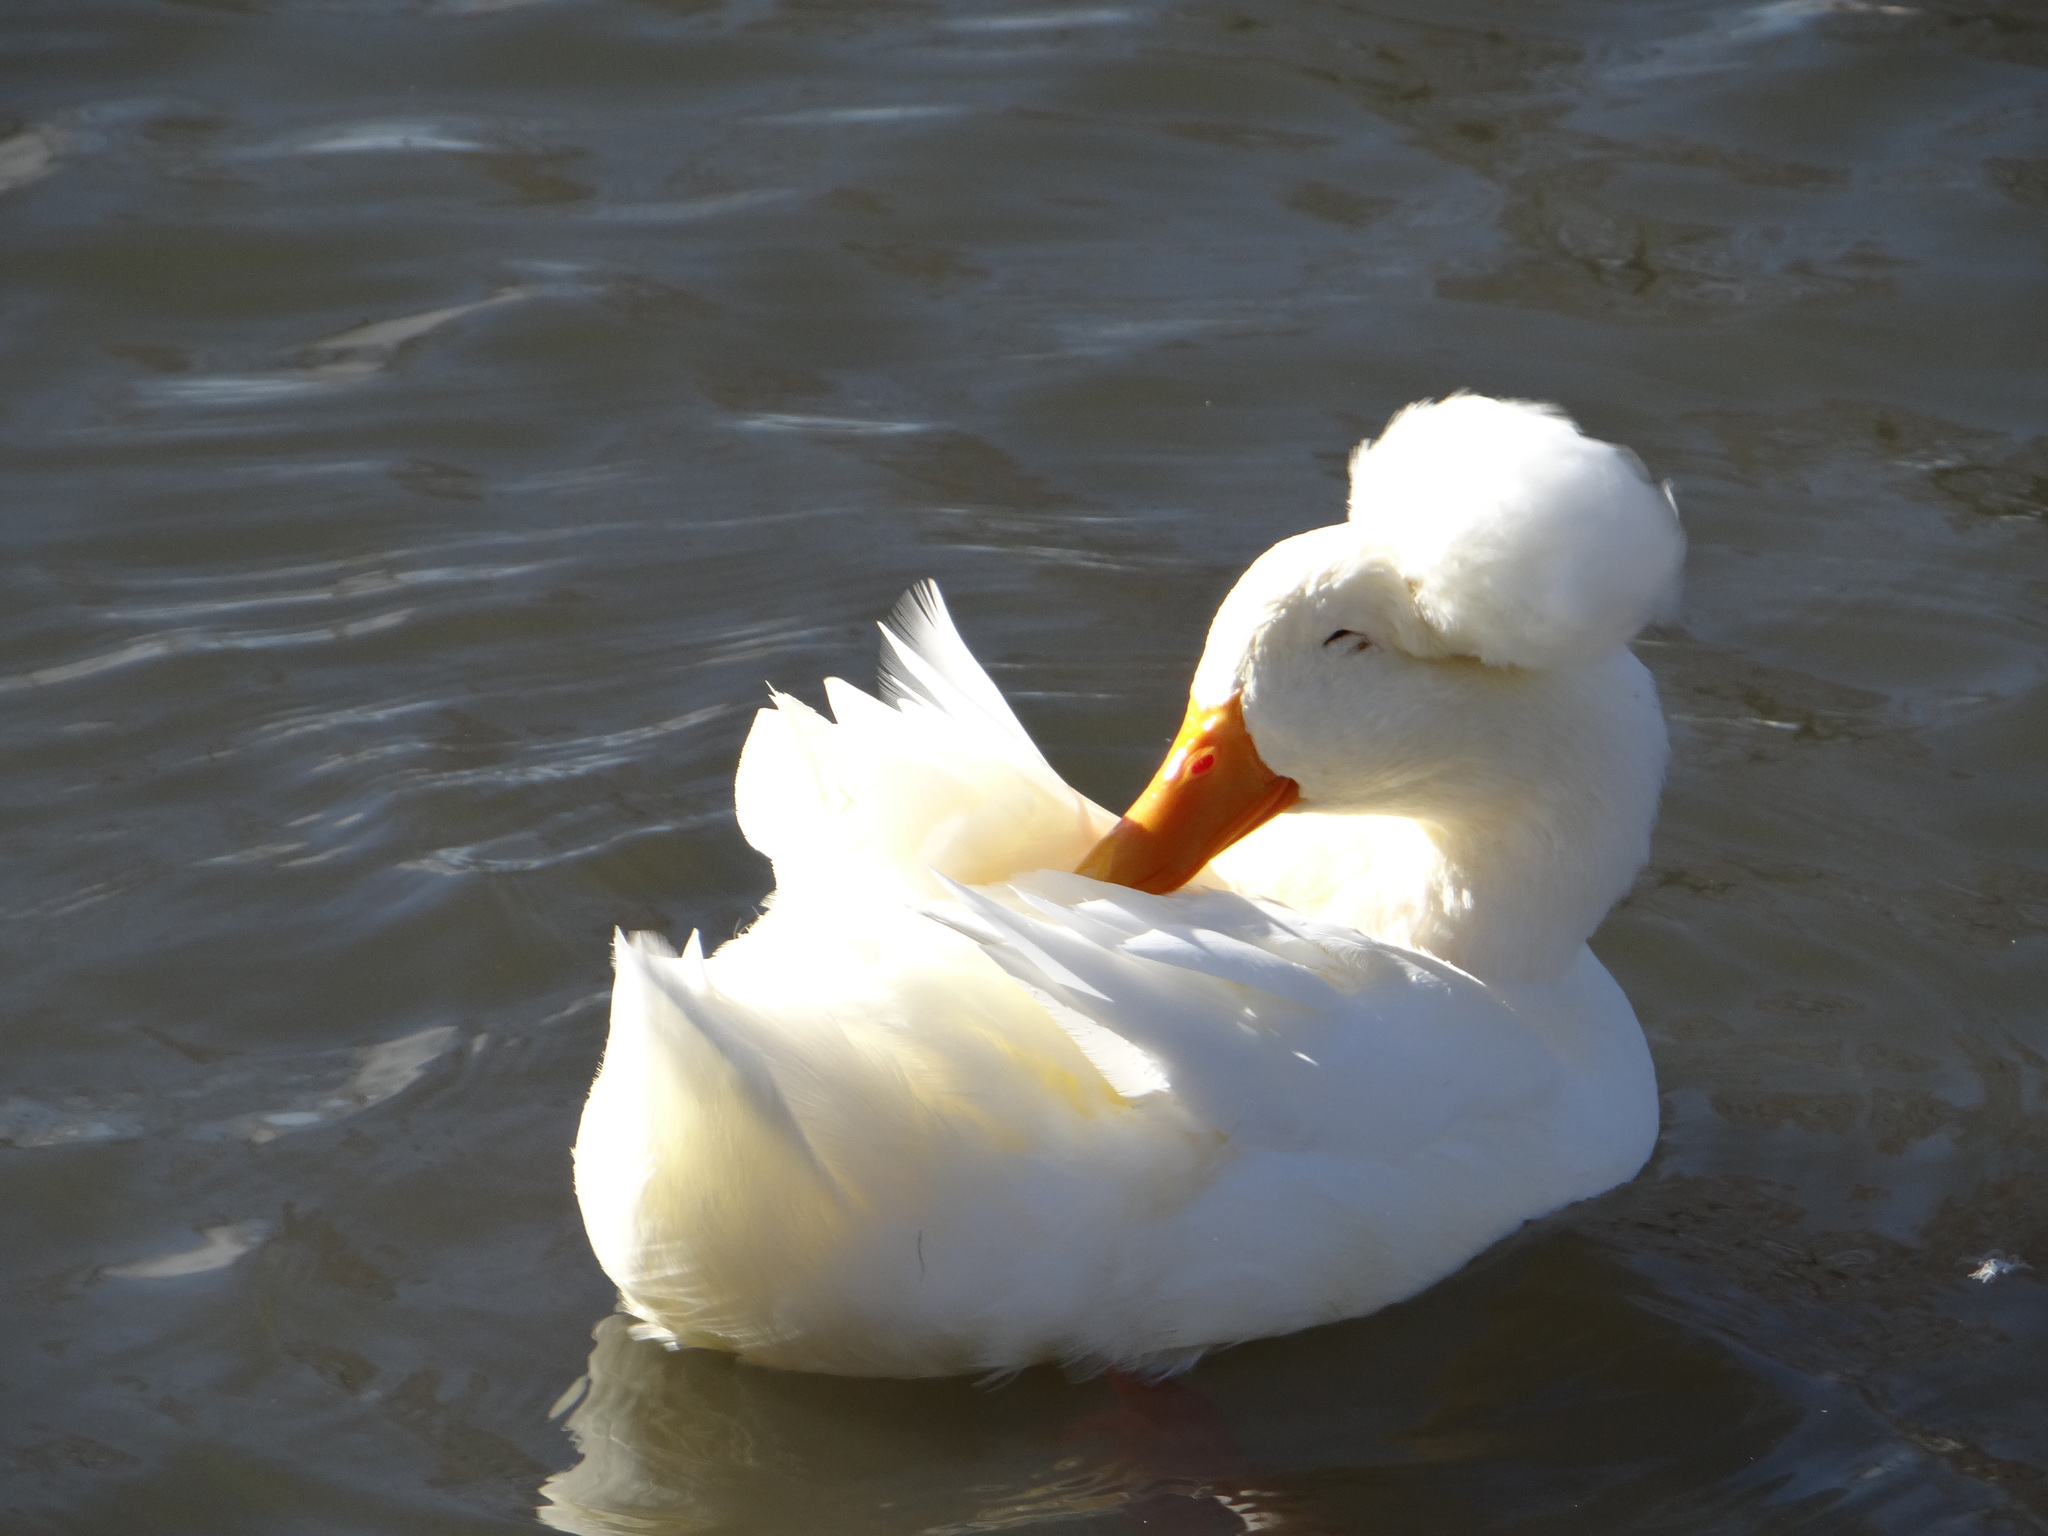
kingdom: Animalia
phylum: Chordata
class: Aves
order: Anseriformes
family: Anatidae
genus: Anas
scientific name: Anas platyrhynchos
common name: Mallard
